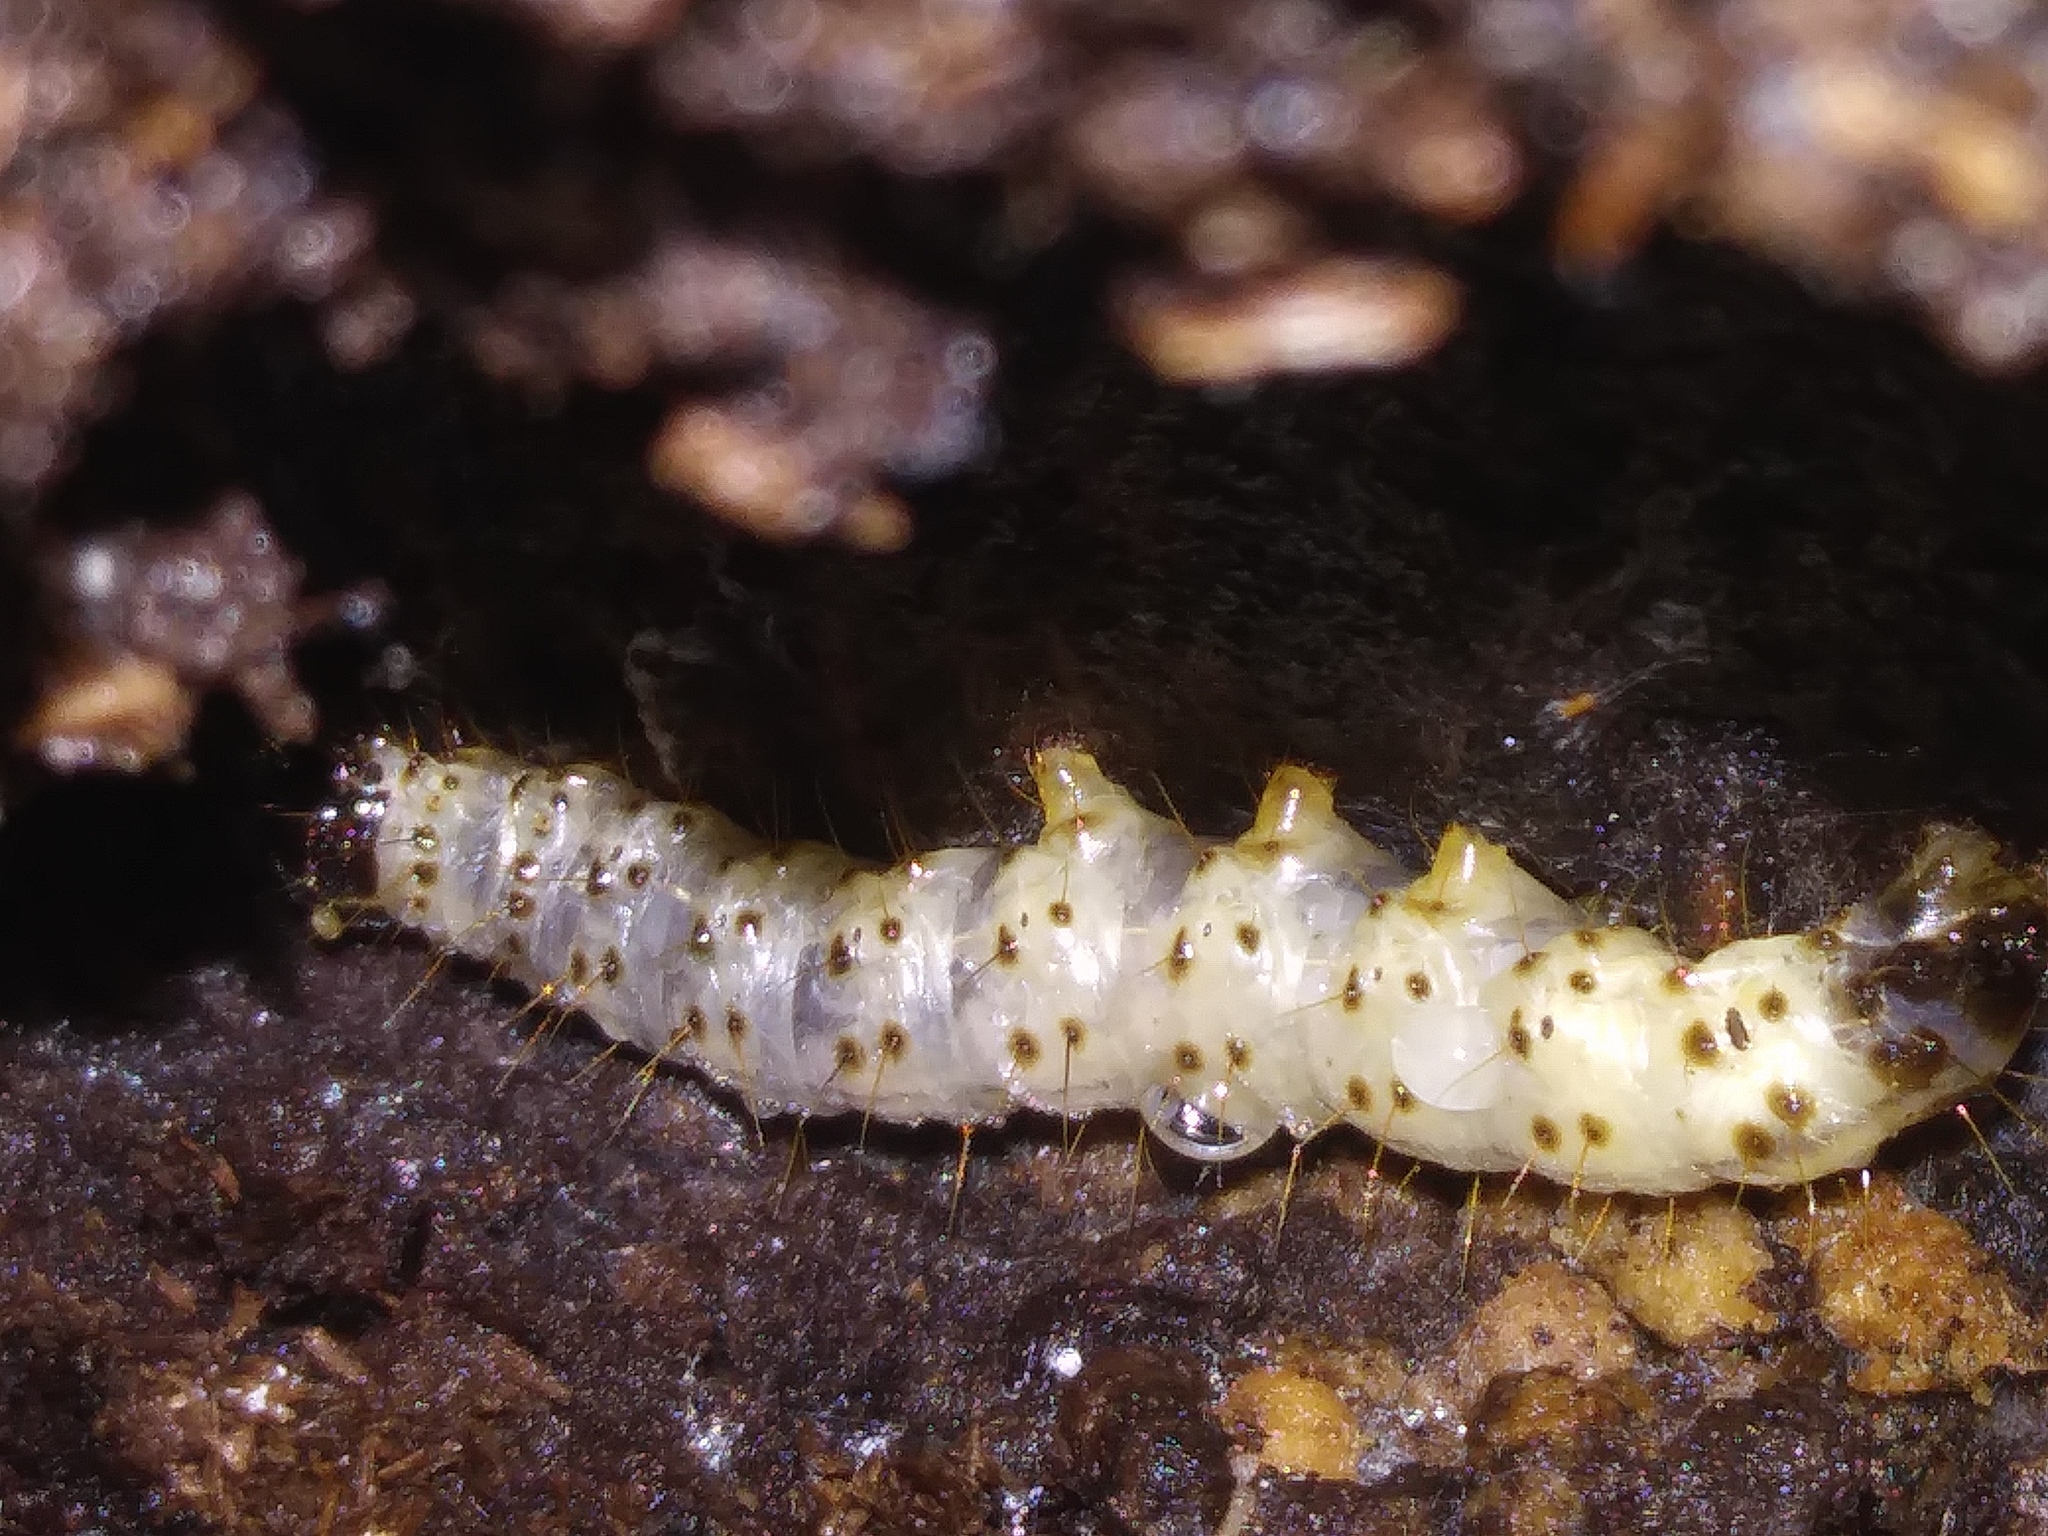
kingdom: Animalia
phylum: Arthropoda
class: Insecta
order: Lepidoptera
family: Erebidae
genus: Scolecocampa
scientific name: Scolecocampa liburna
